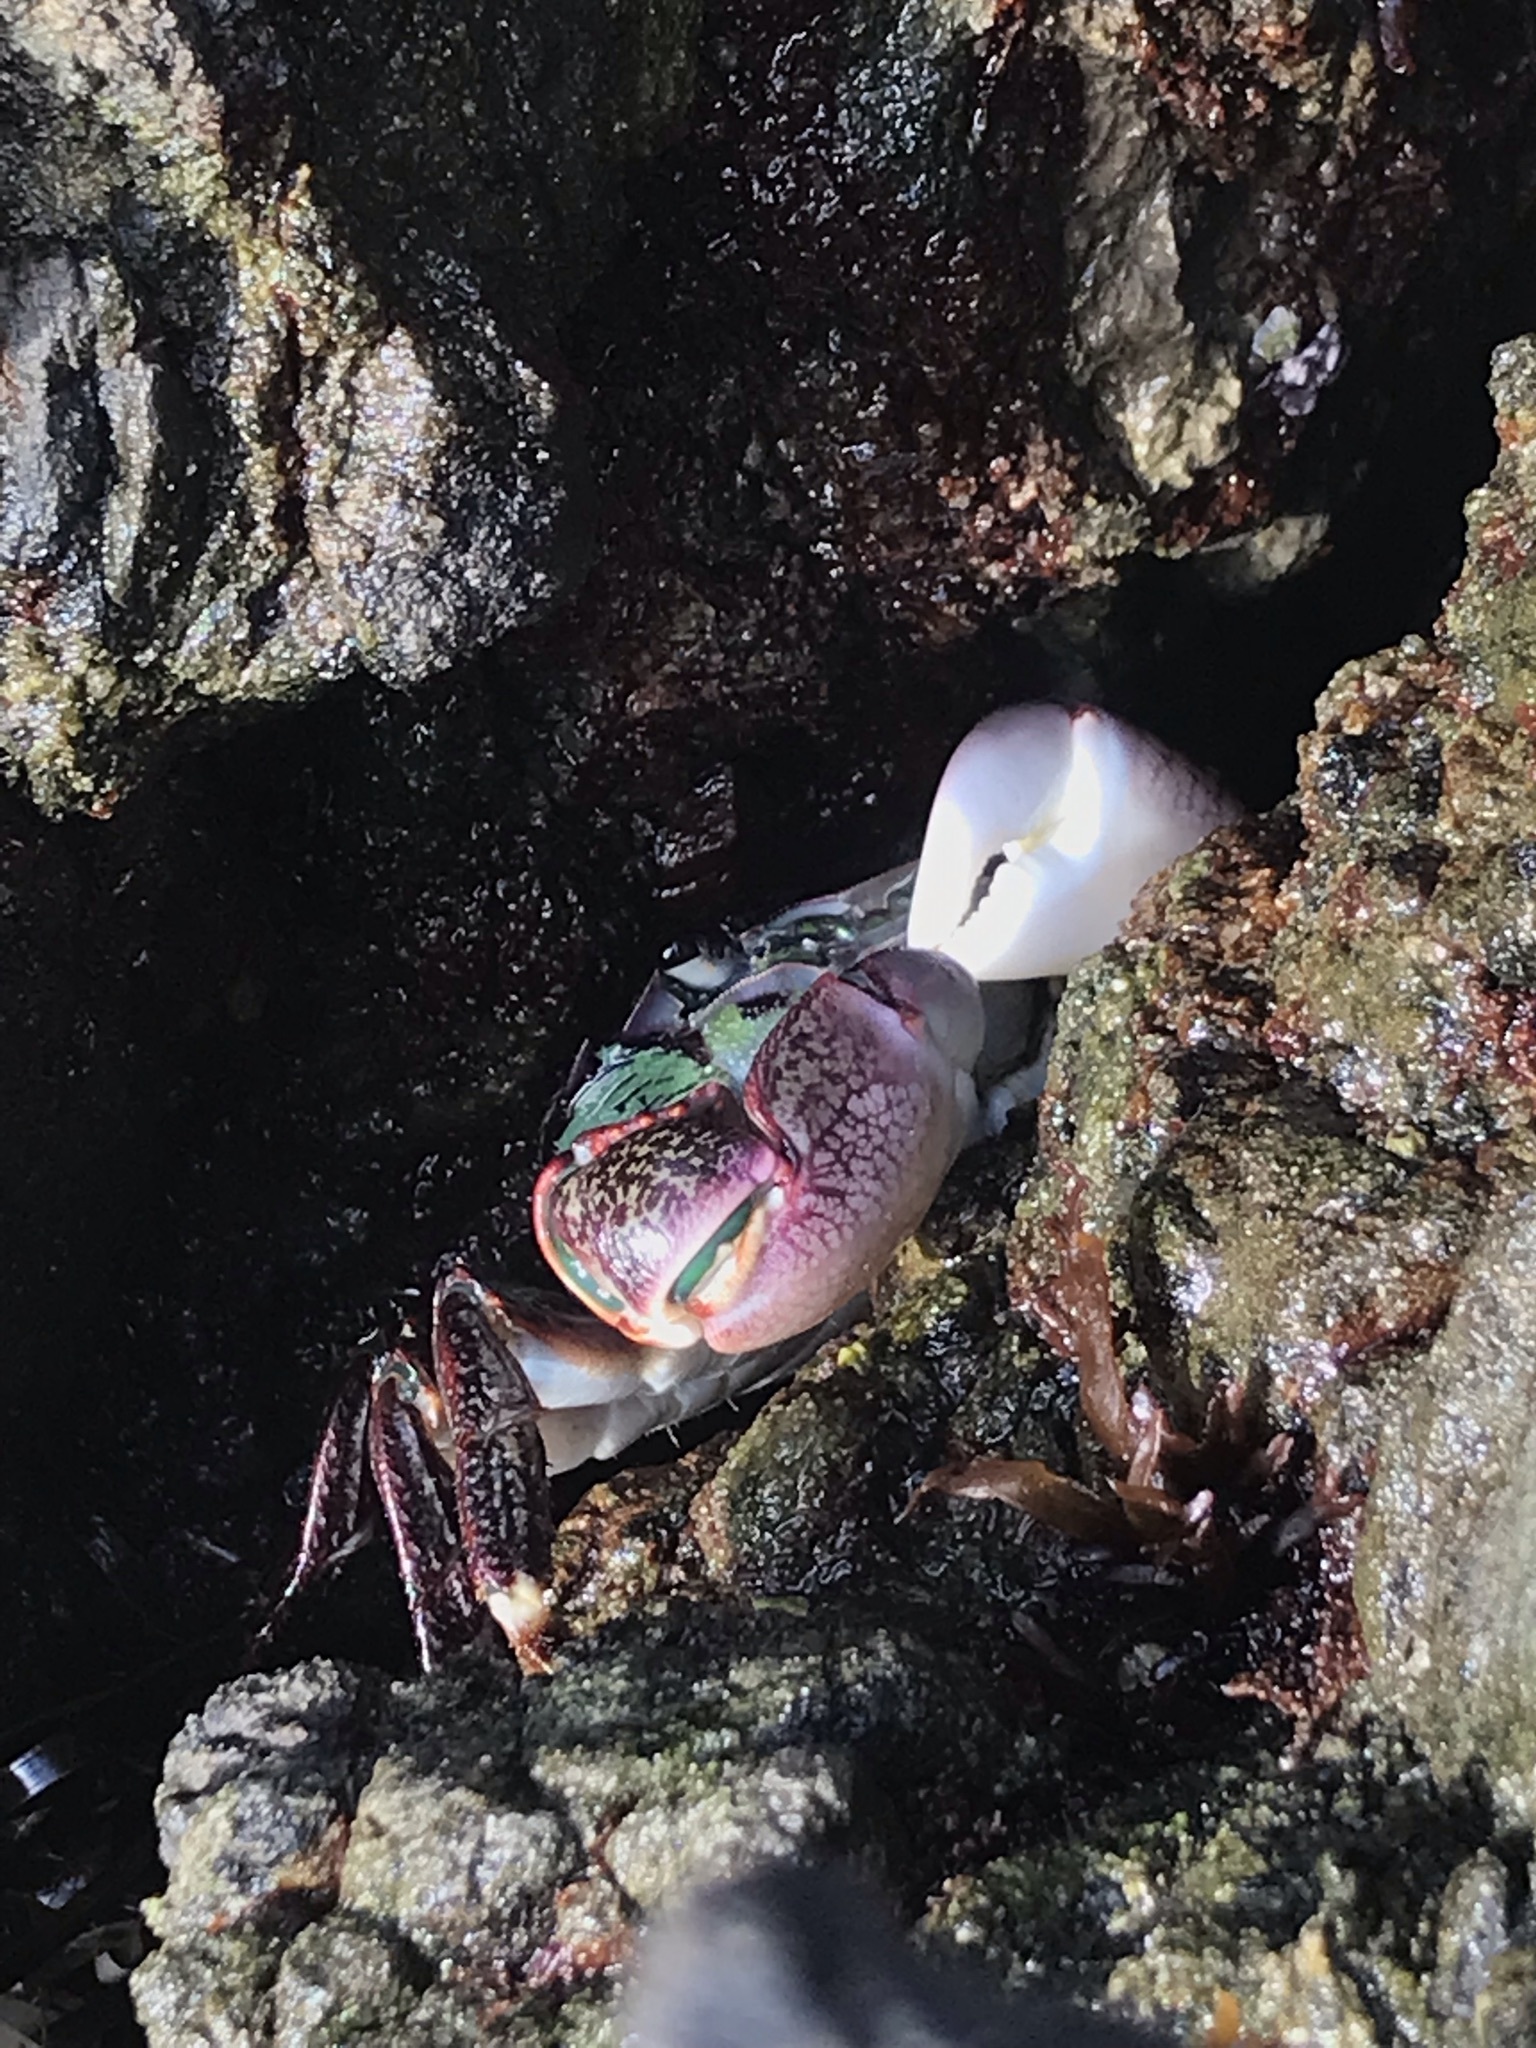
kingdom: Animalia
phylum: Arthropoda
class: Malacostraca
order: Decapoda
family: Grapsidae
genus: Pachygrapsus
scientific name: Pachygrapsus crassipes
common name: Striped shore crab
